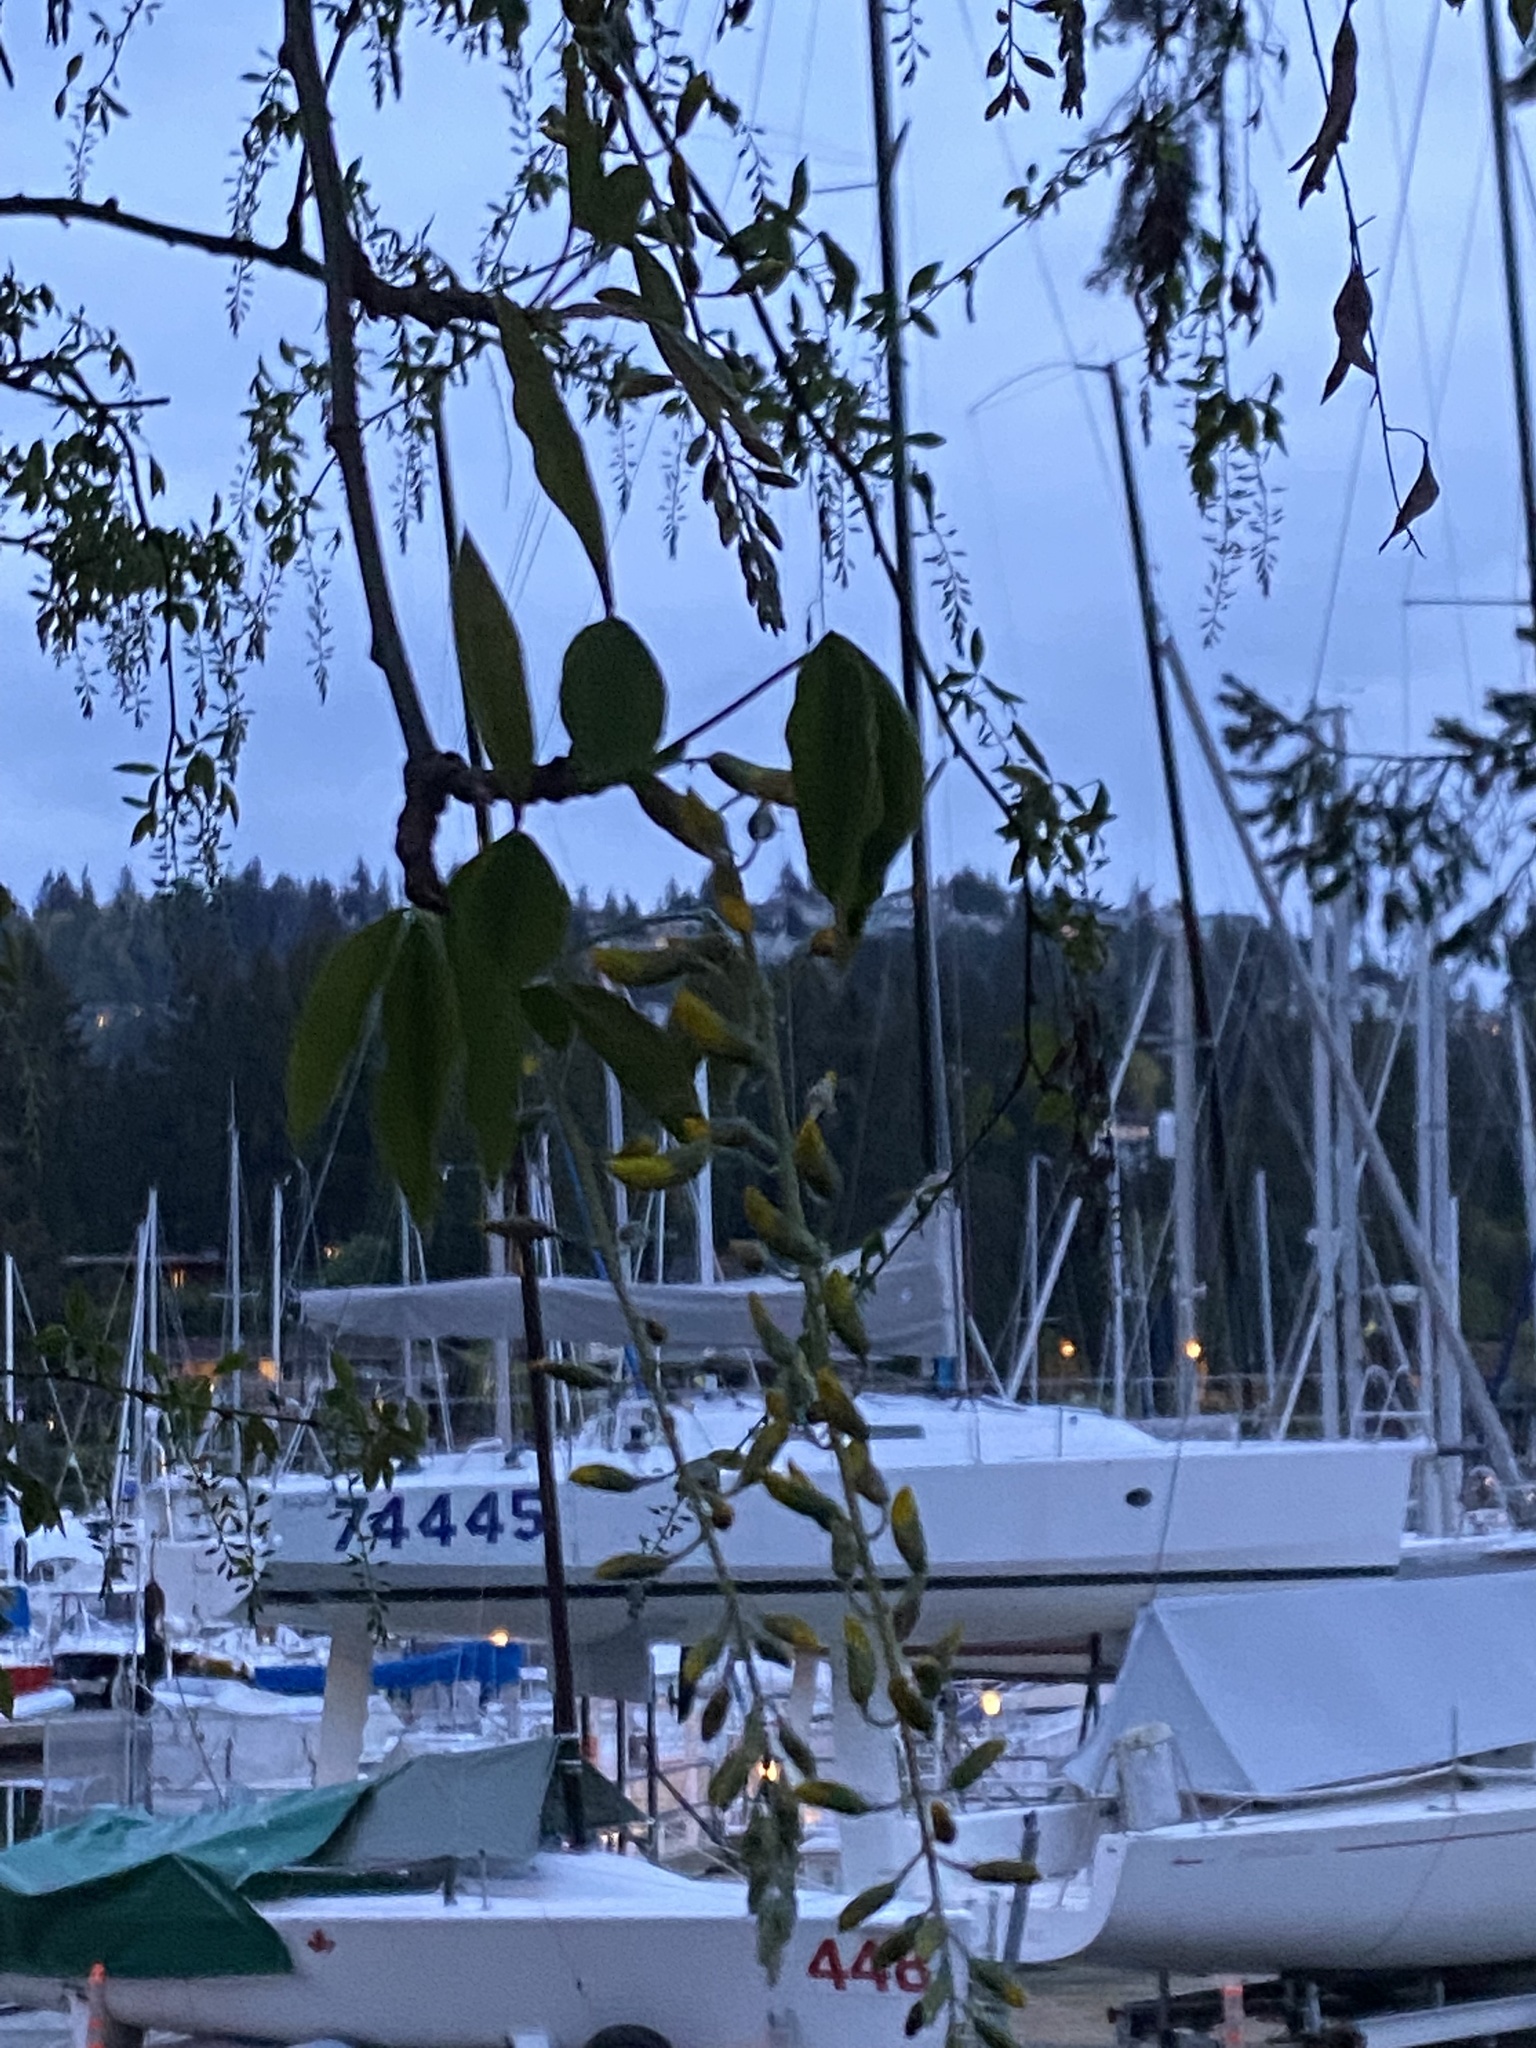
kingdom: Plantae
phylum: Tracheophyta
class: Magnoliopsida
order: Fabales
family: Fabaceae
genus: Laburnum
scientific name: Laburnum anagyroides
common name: Laburnum
